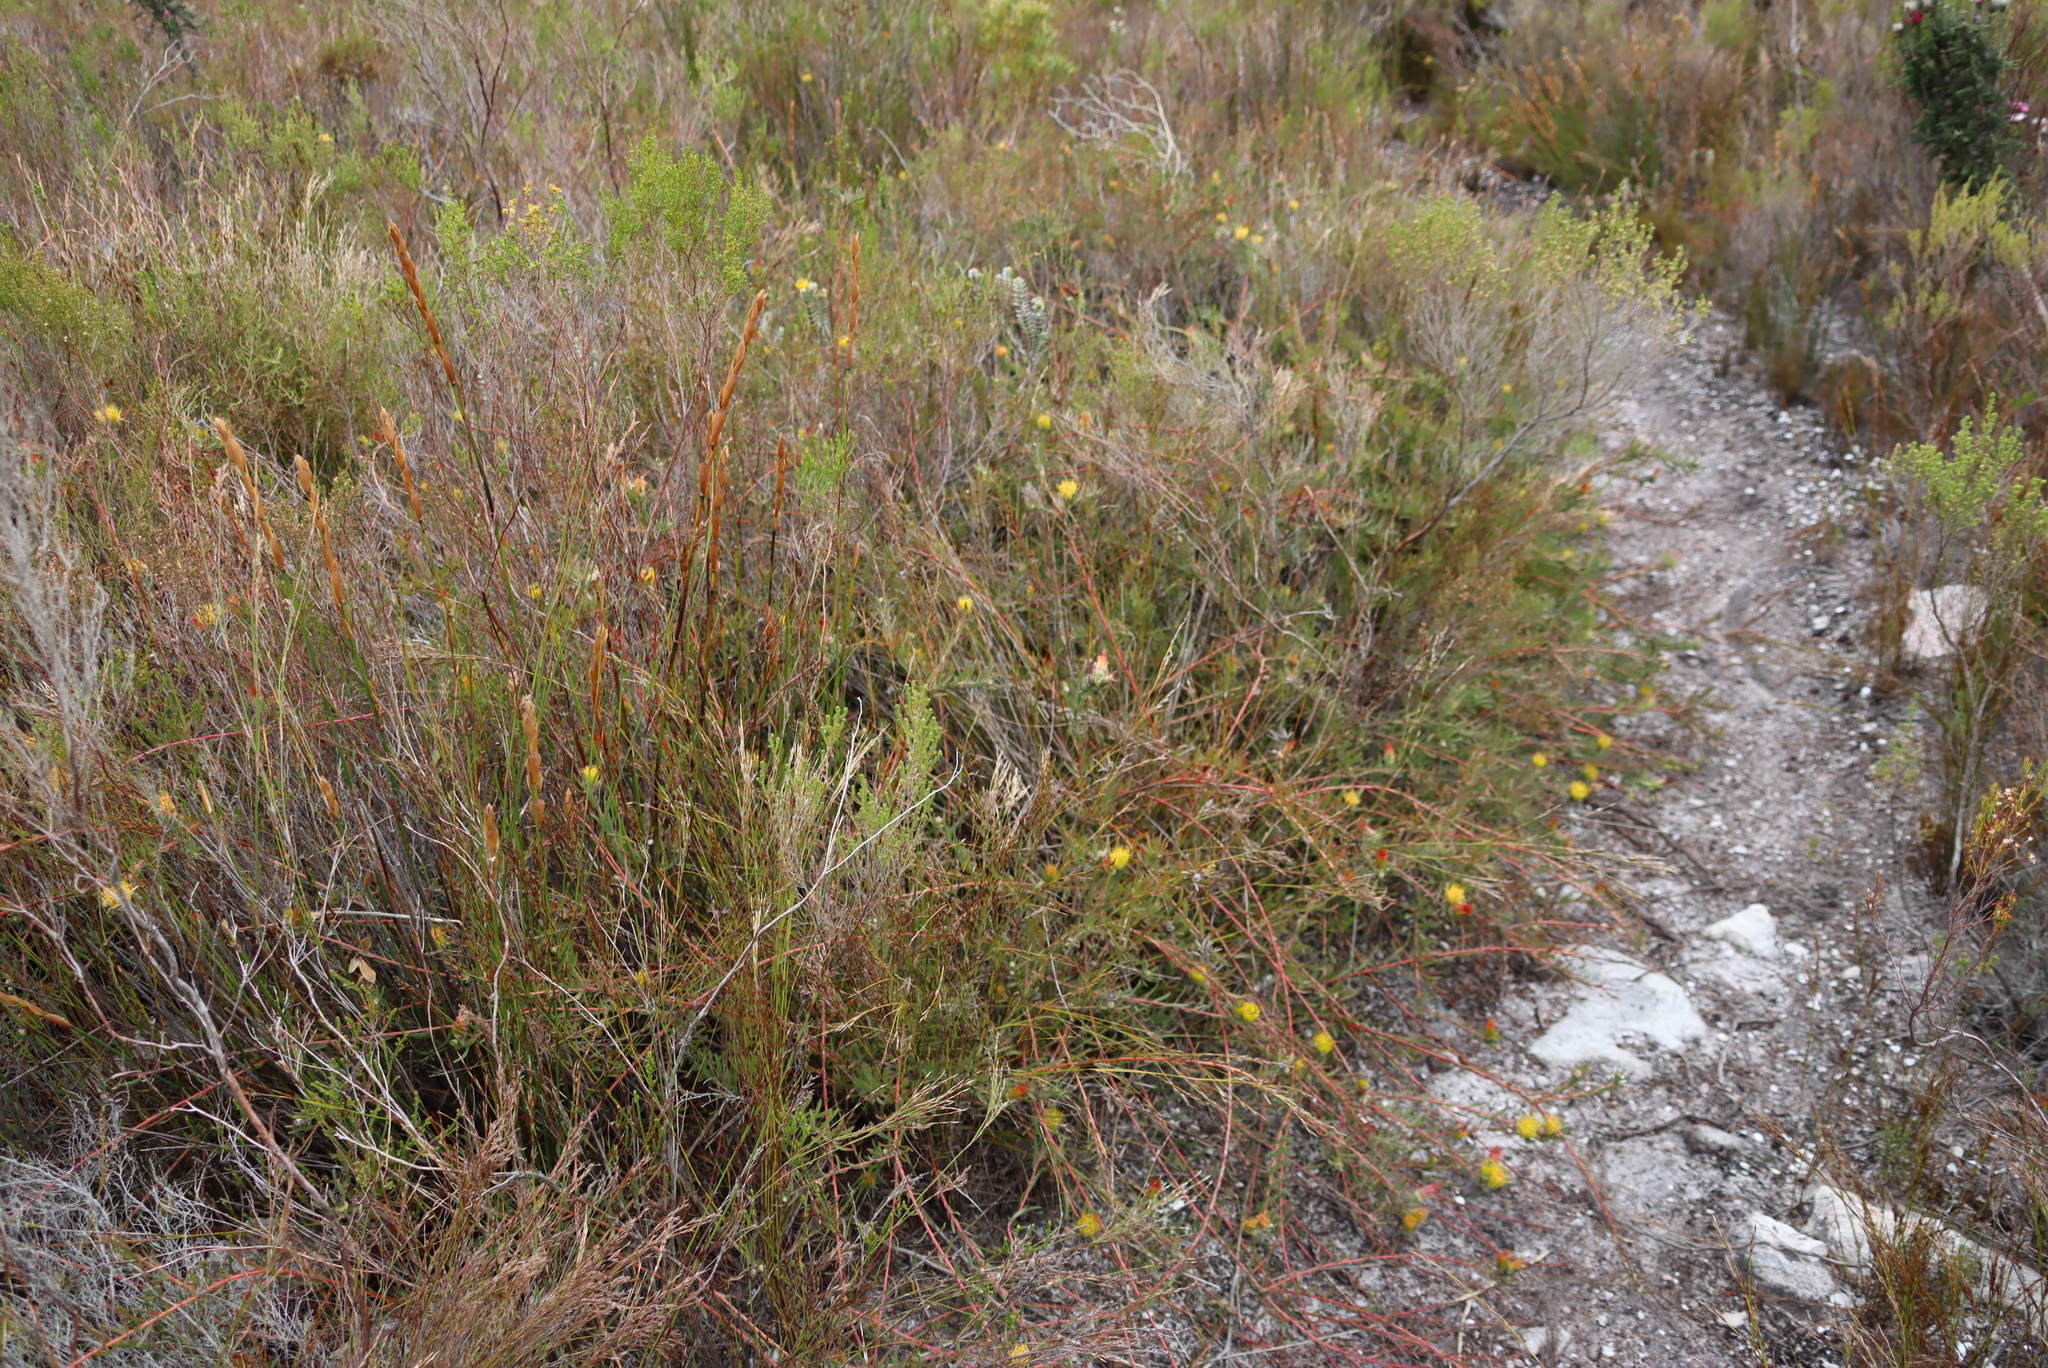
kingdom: Plantae
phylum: Tracheophyta
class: Magnoliopsida
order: Proteales
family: Proteaceae
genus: Leucospermum
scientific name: Leucospermum gracile
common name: Hermanus pincushion
